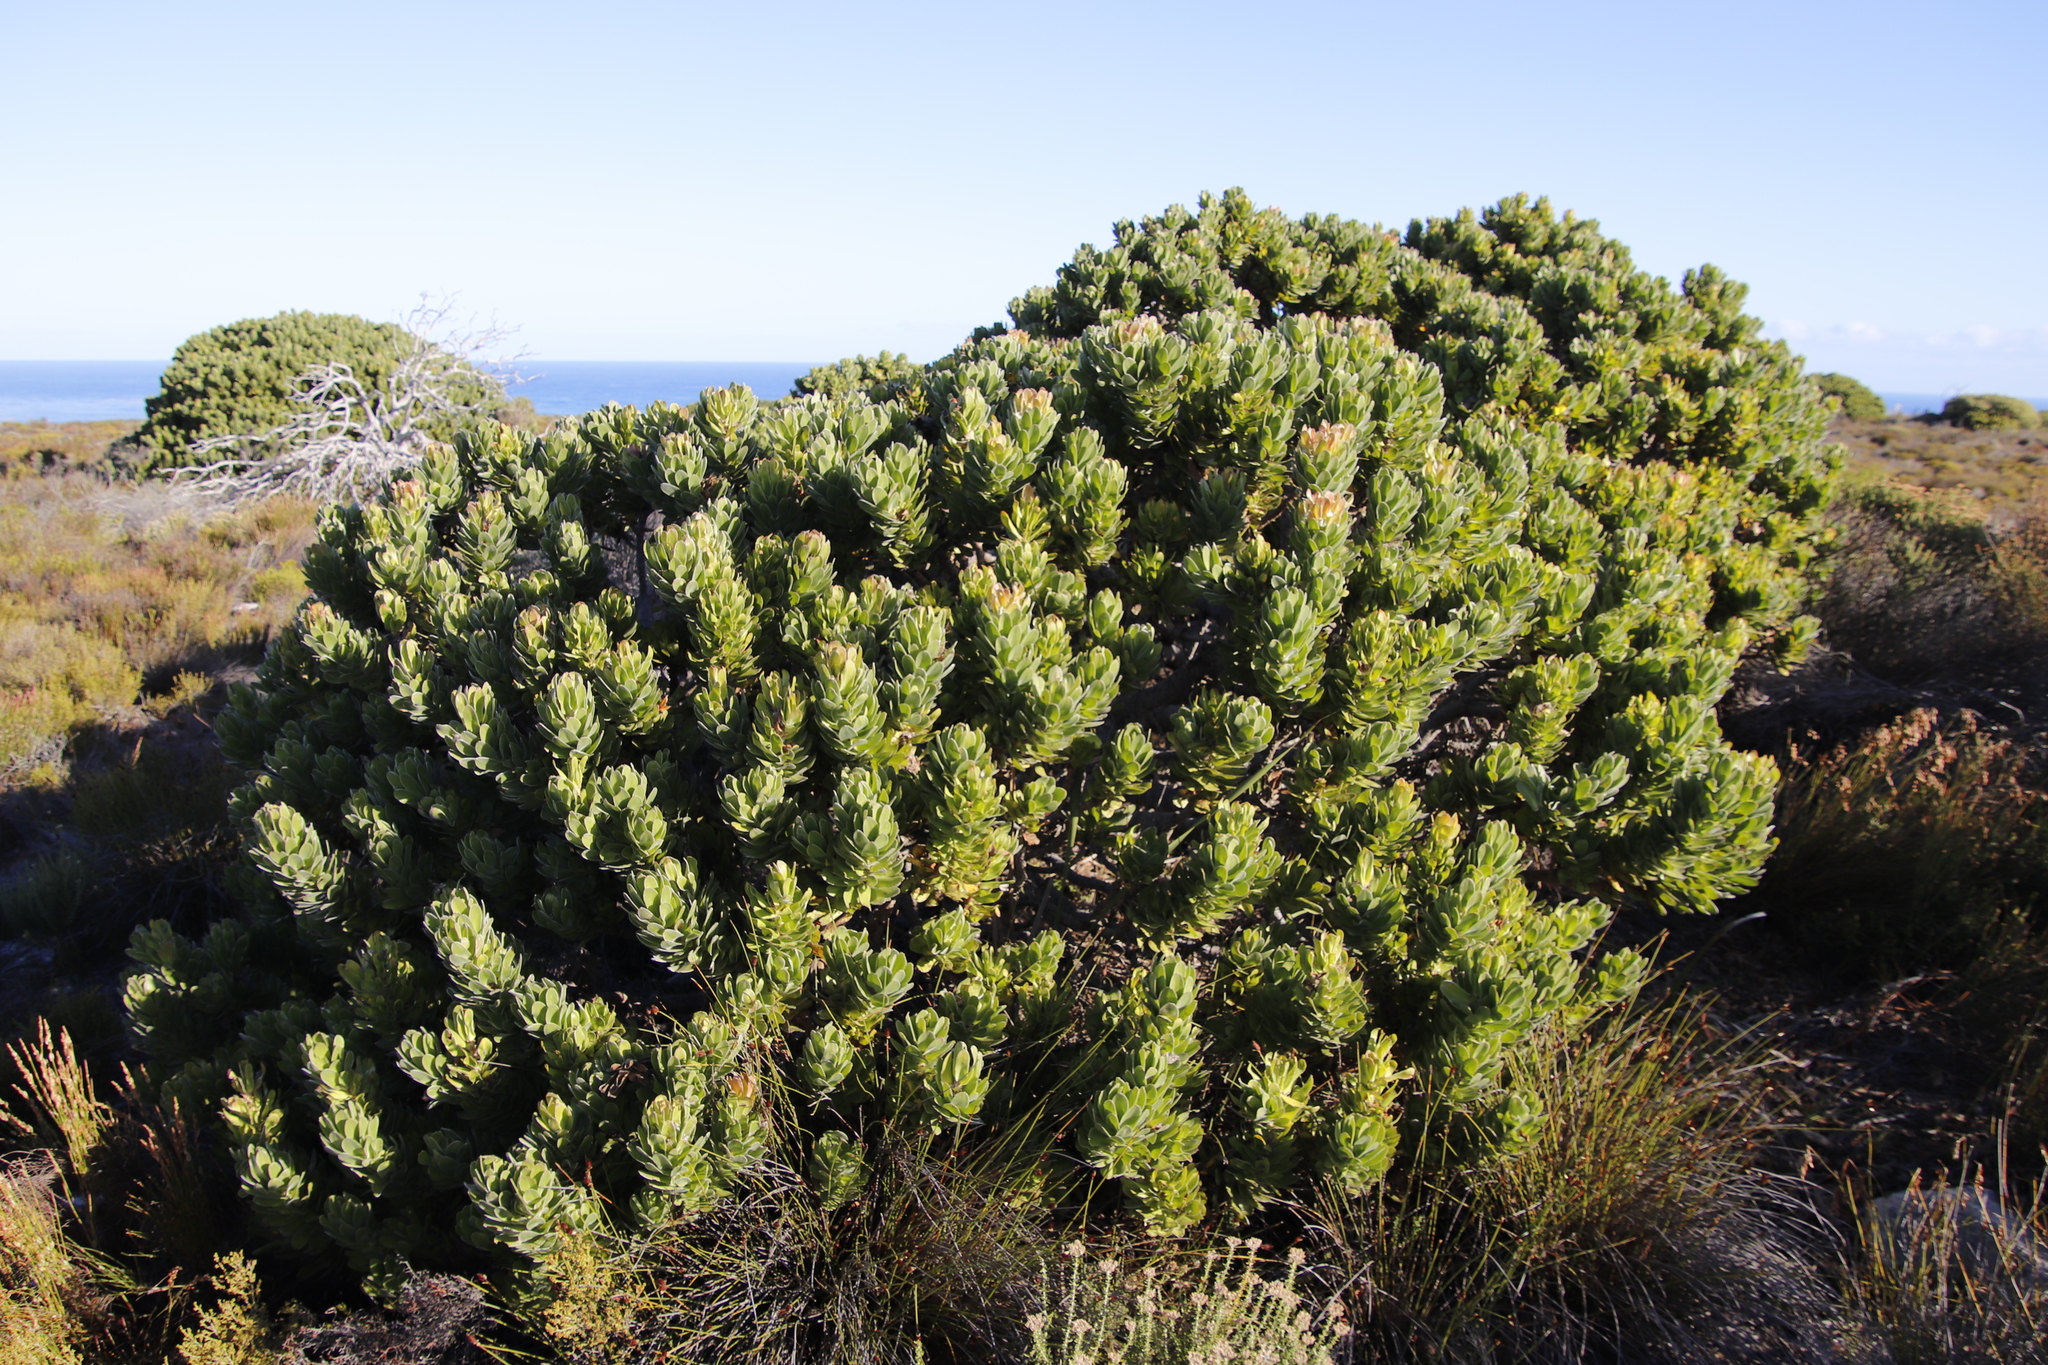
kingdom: Plantae
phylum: Tracheophyta
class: Magnoliopsida
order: Proteales
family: Proteaceae
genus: Mimetes
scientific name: Mimetes fimbriifolius
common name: Fringed bottlebrush
